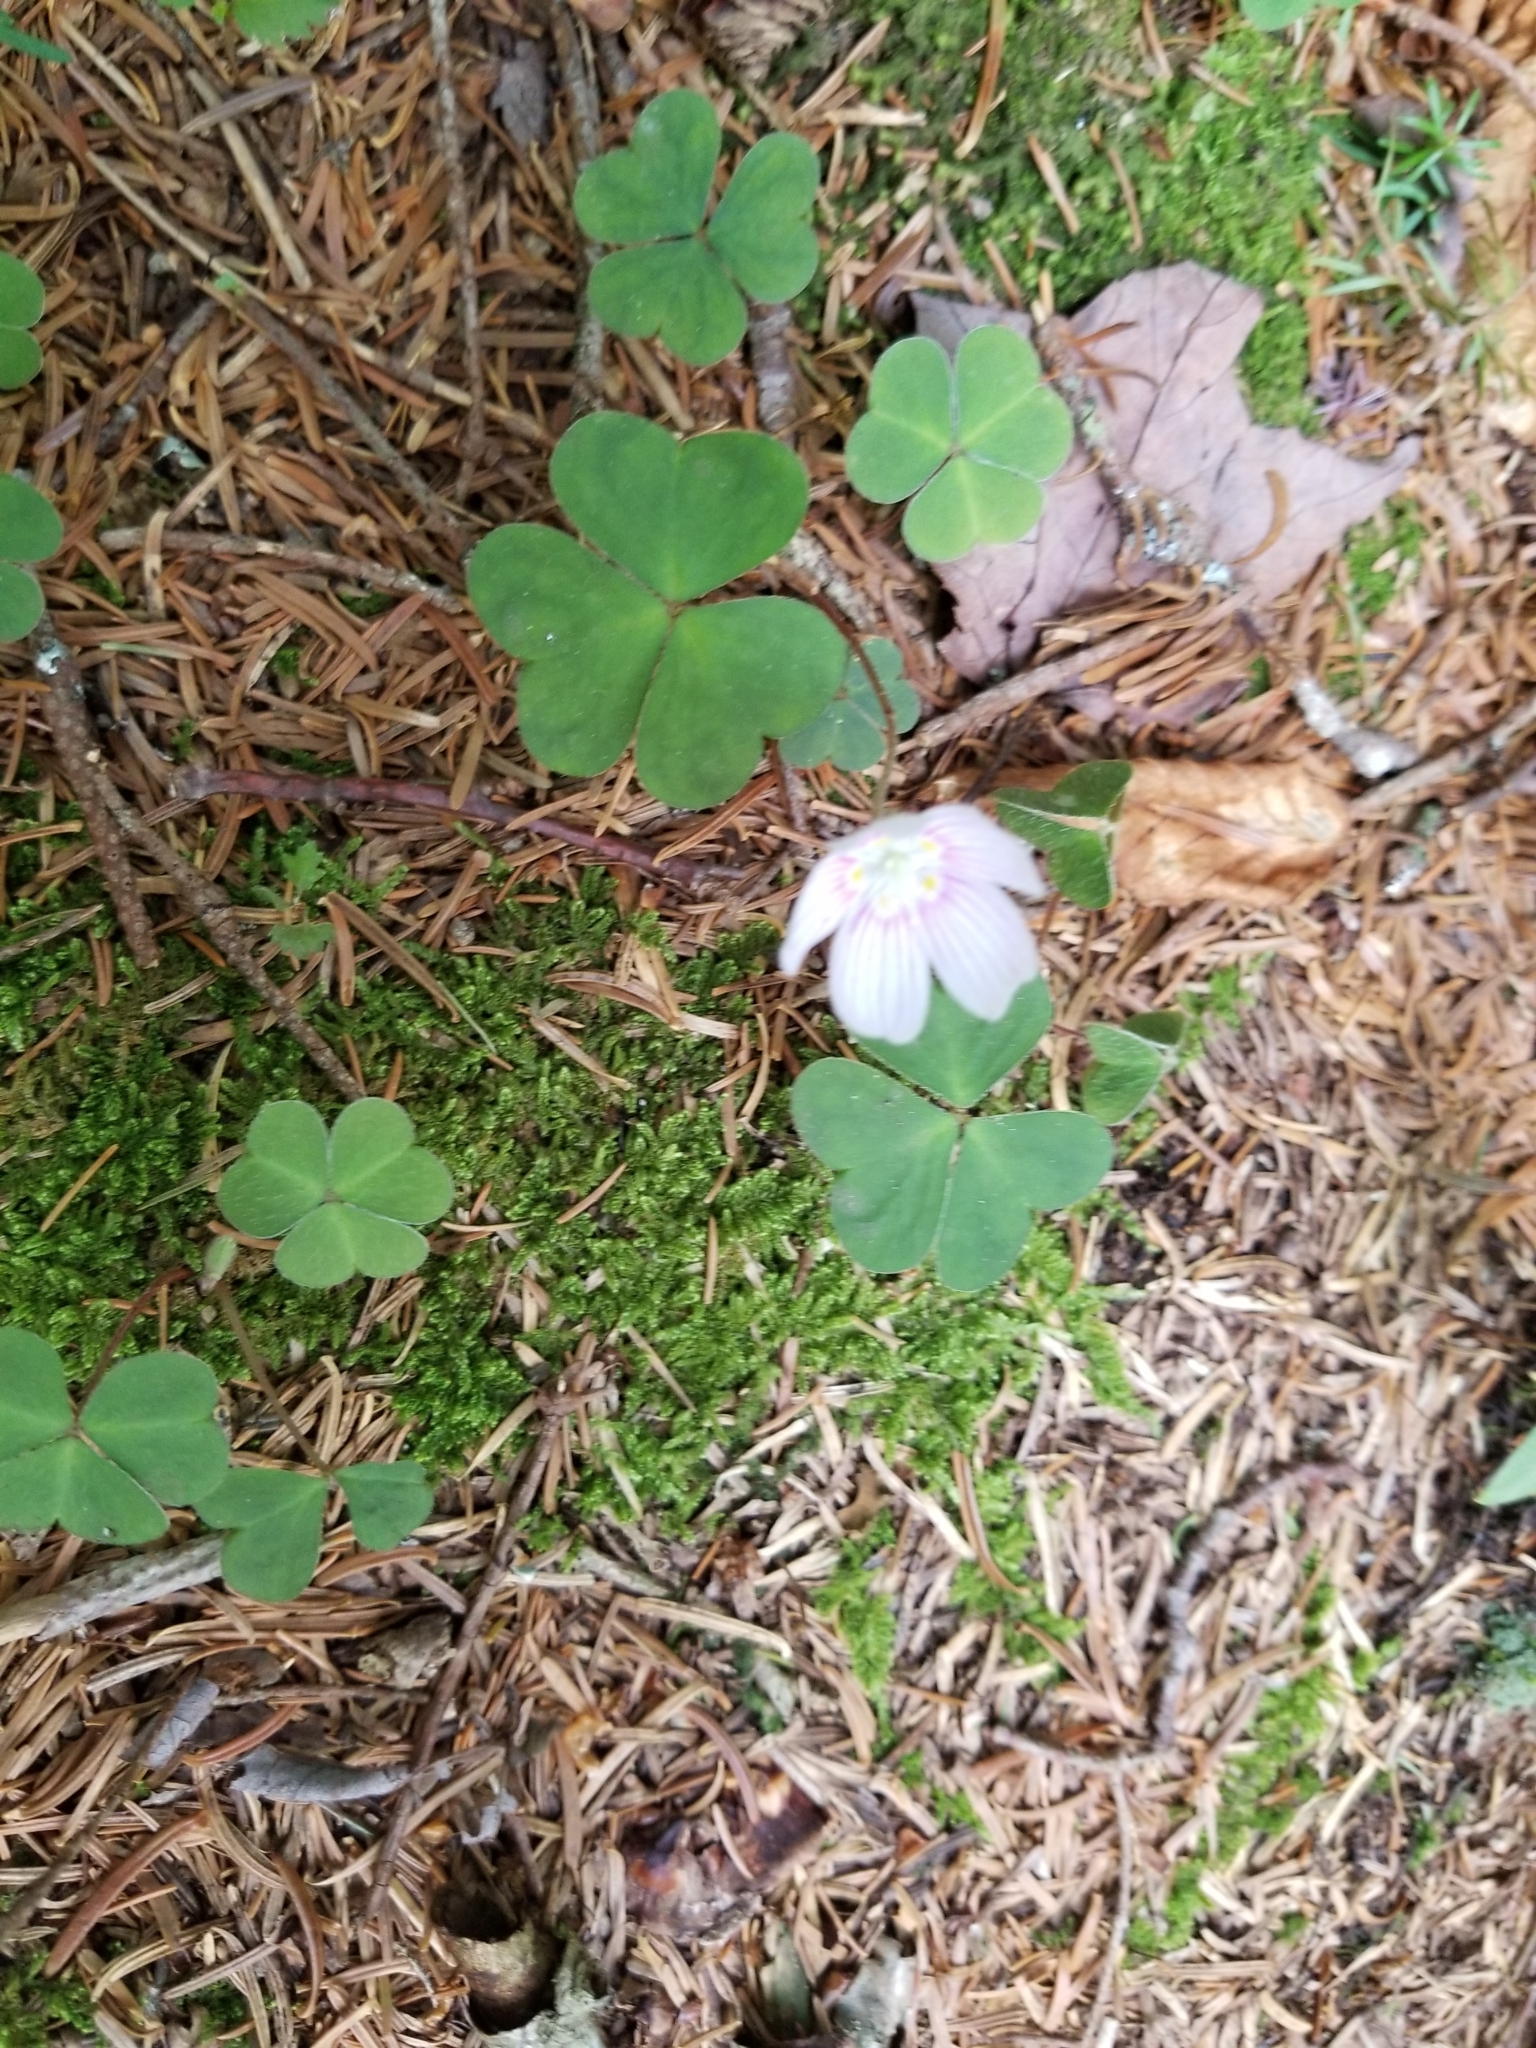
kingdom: Plantae
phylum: Tracheophyta
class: Magnoliopsida
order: Oxalidales
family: Oxalidaceae
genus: Oxalis
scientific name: Oxalis montana
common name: American wood-sorrel
